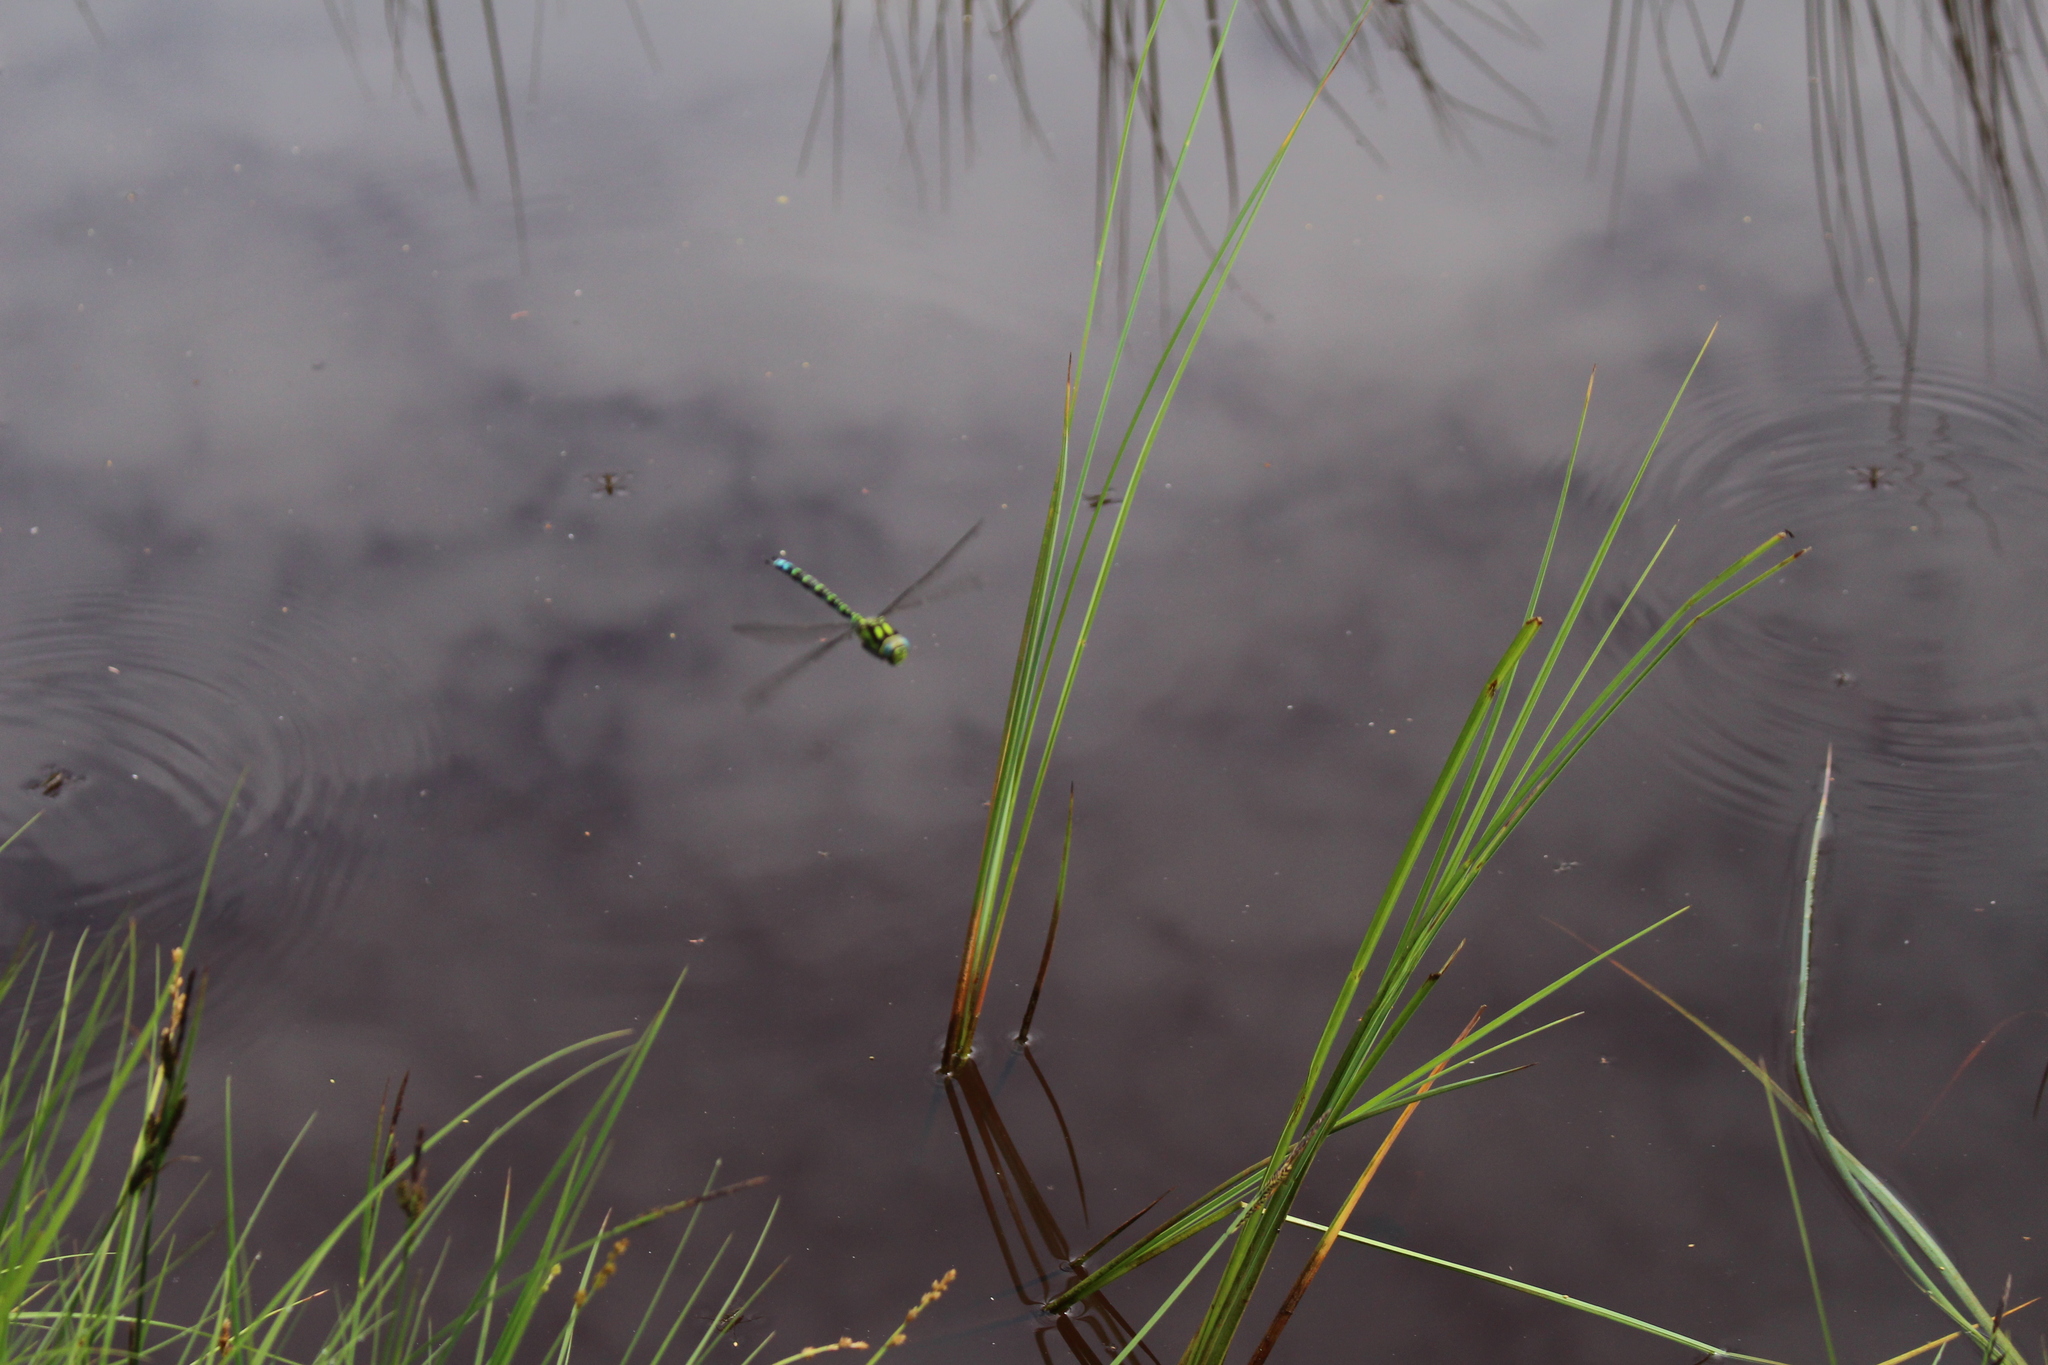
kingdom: Animalia
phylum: Arthropoda
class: Insecta
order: Odonata
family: Aeshnidae
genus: Aeshna
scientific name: Aeshna cyanea
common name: Southern hawker
